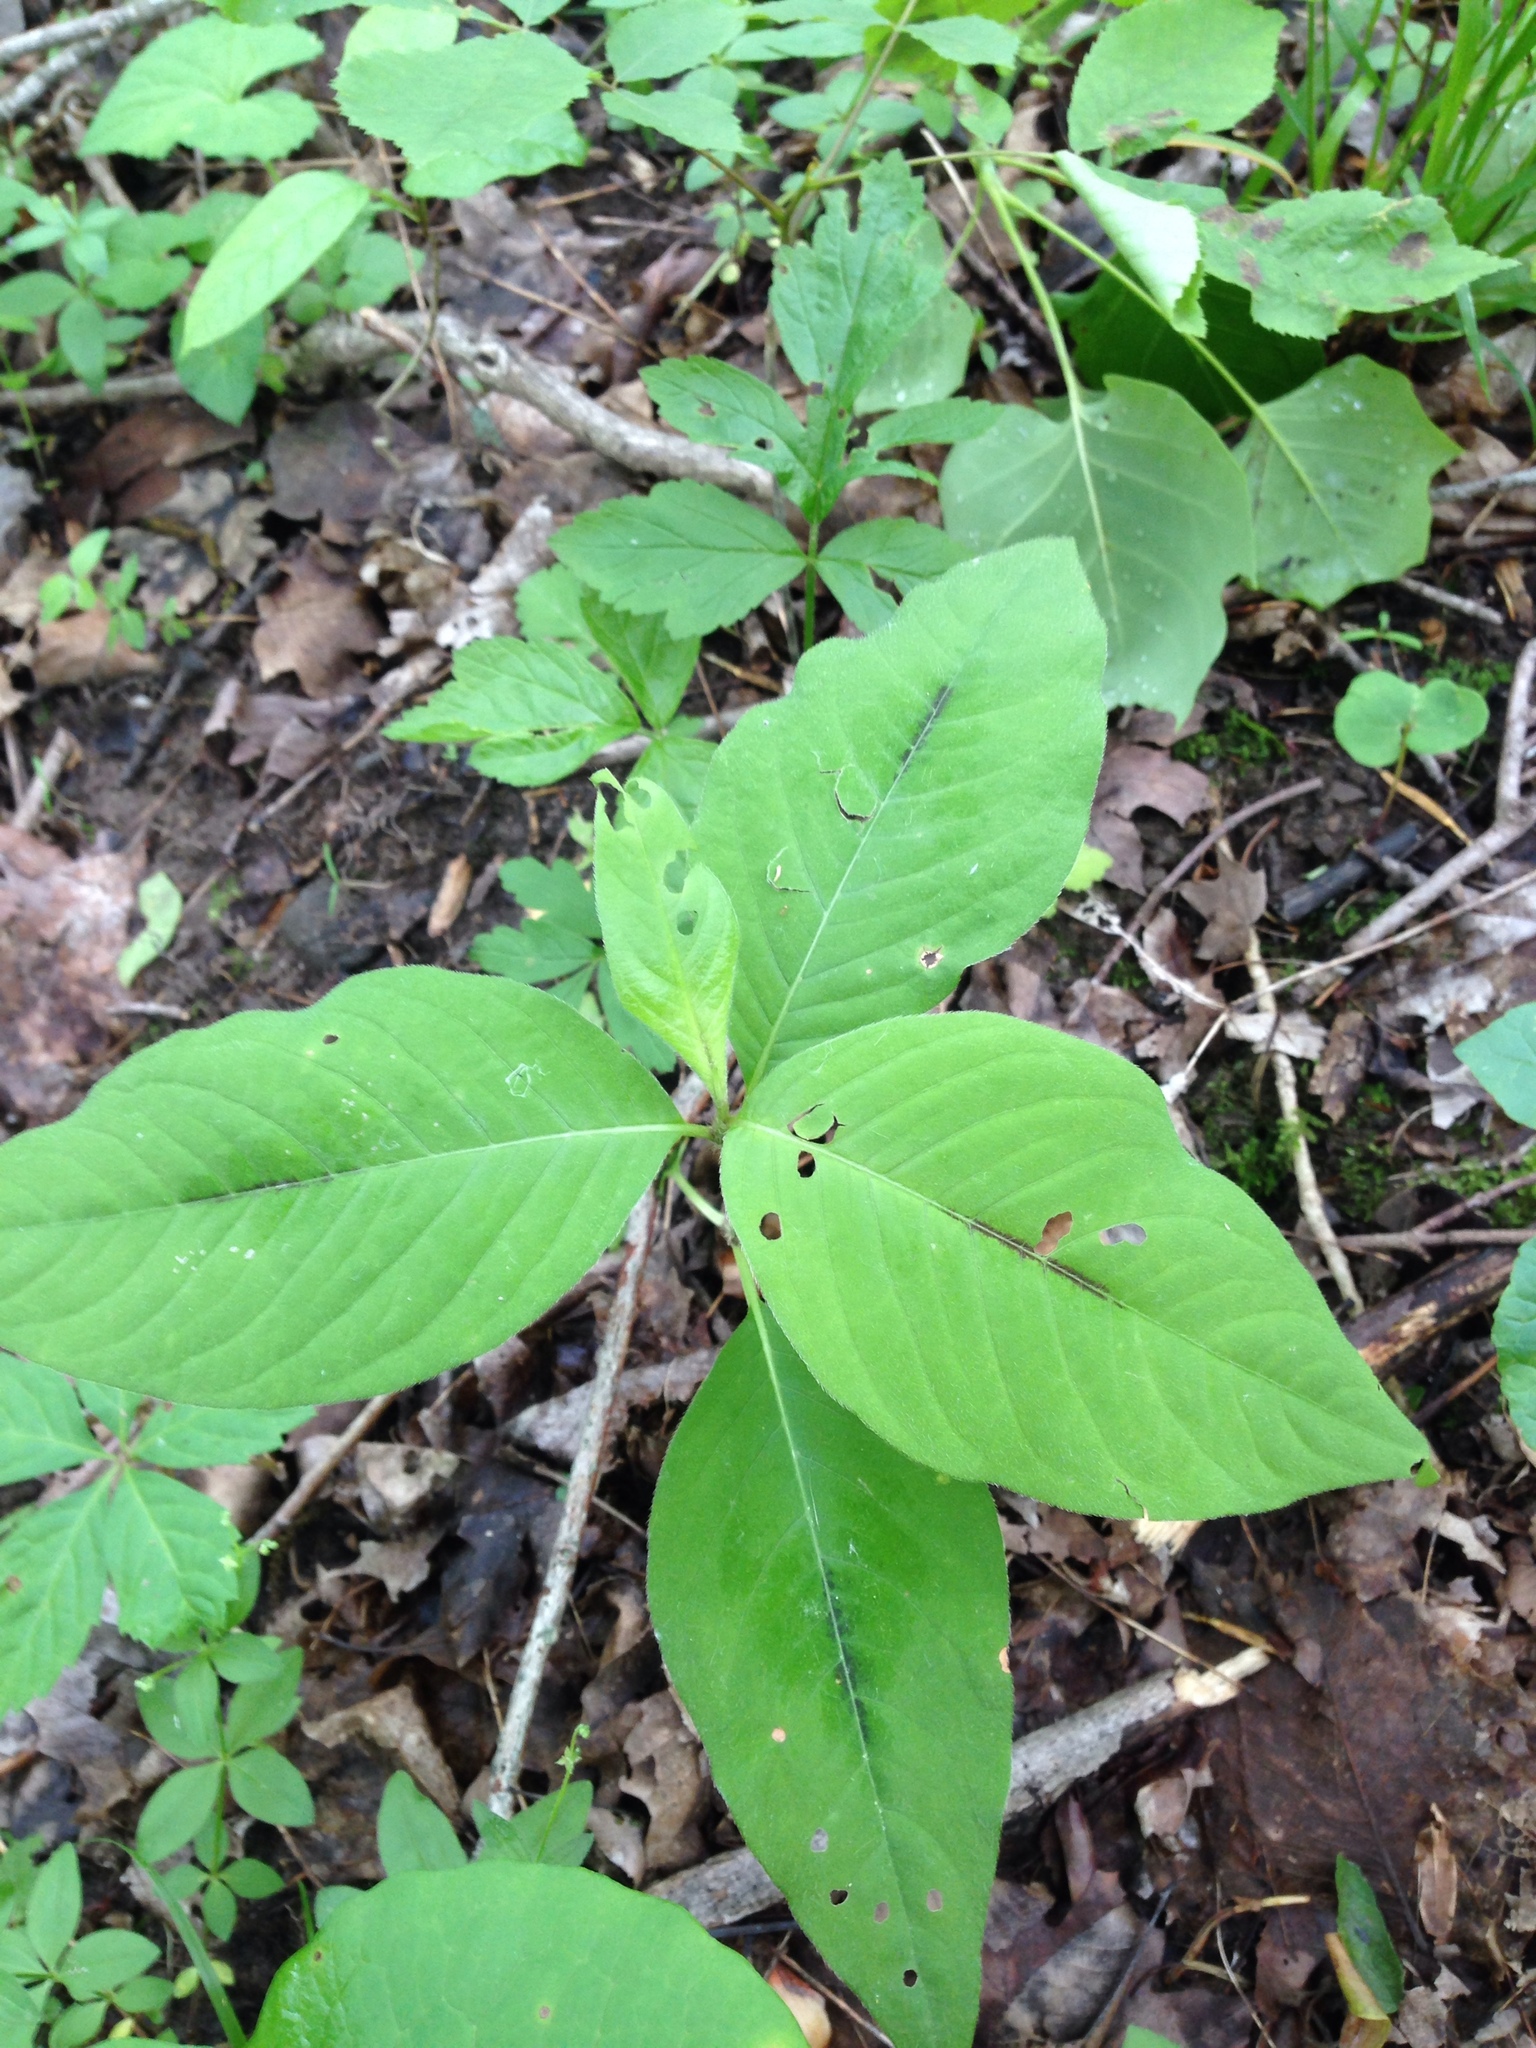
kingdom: Plantae
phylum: Tracheophyta
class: Magnoliopsida
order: Caryophyllales
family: Polygonaceae
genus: Persicaria
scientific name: Persicaria virginiana
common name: Jumpseed
